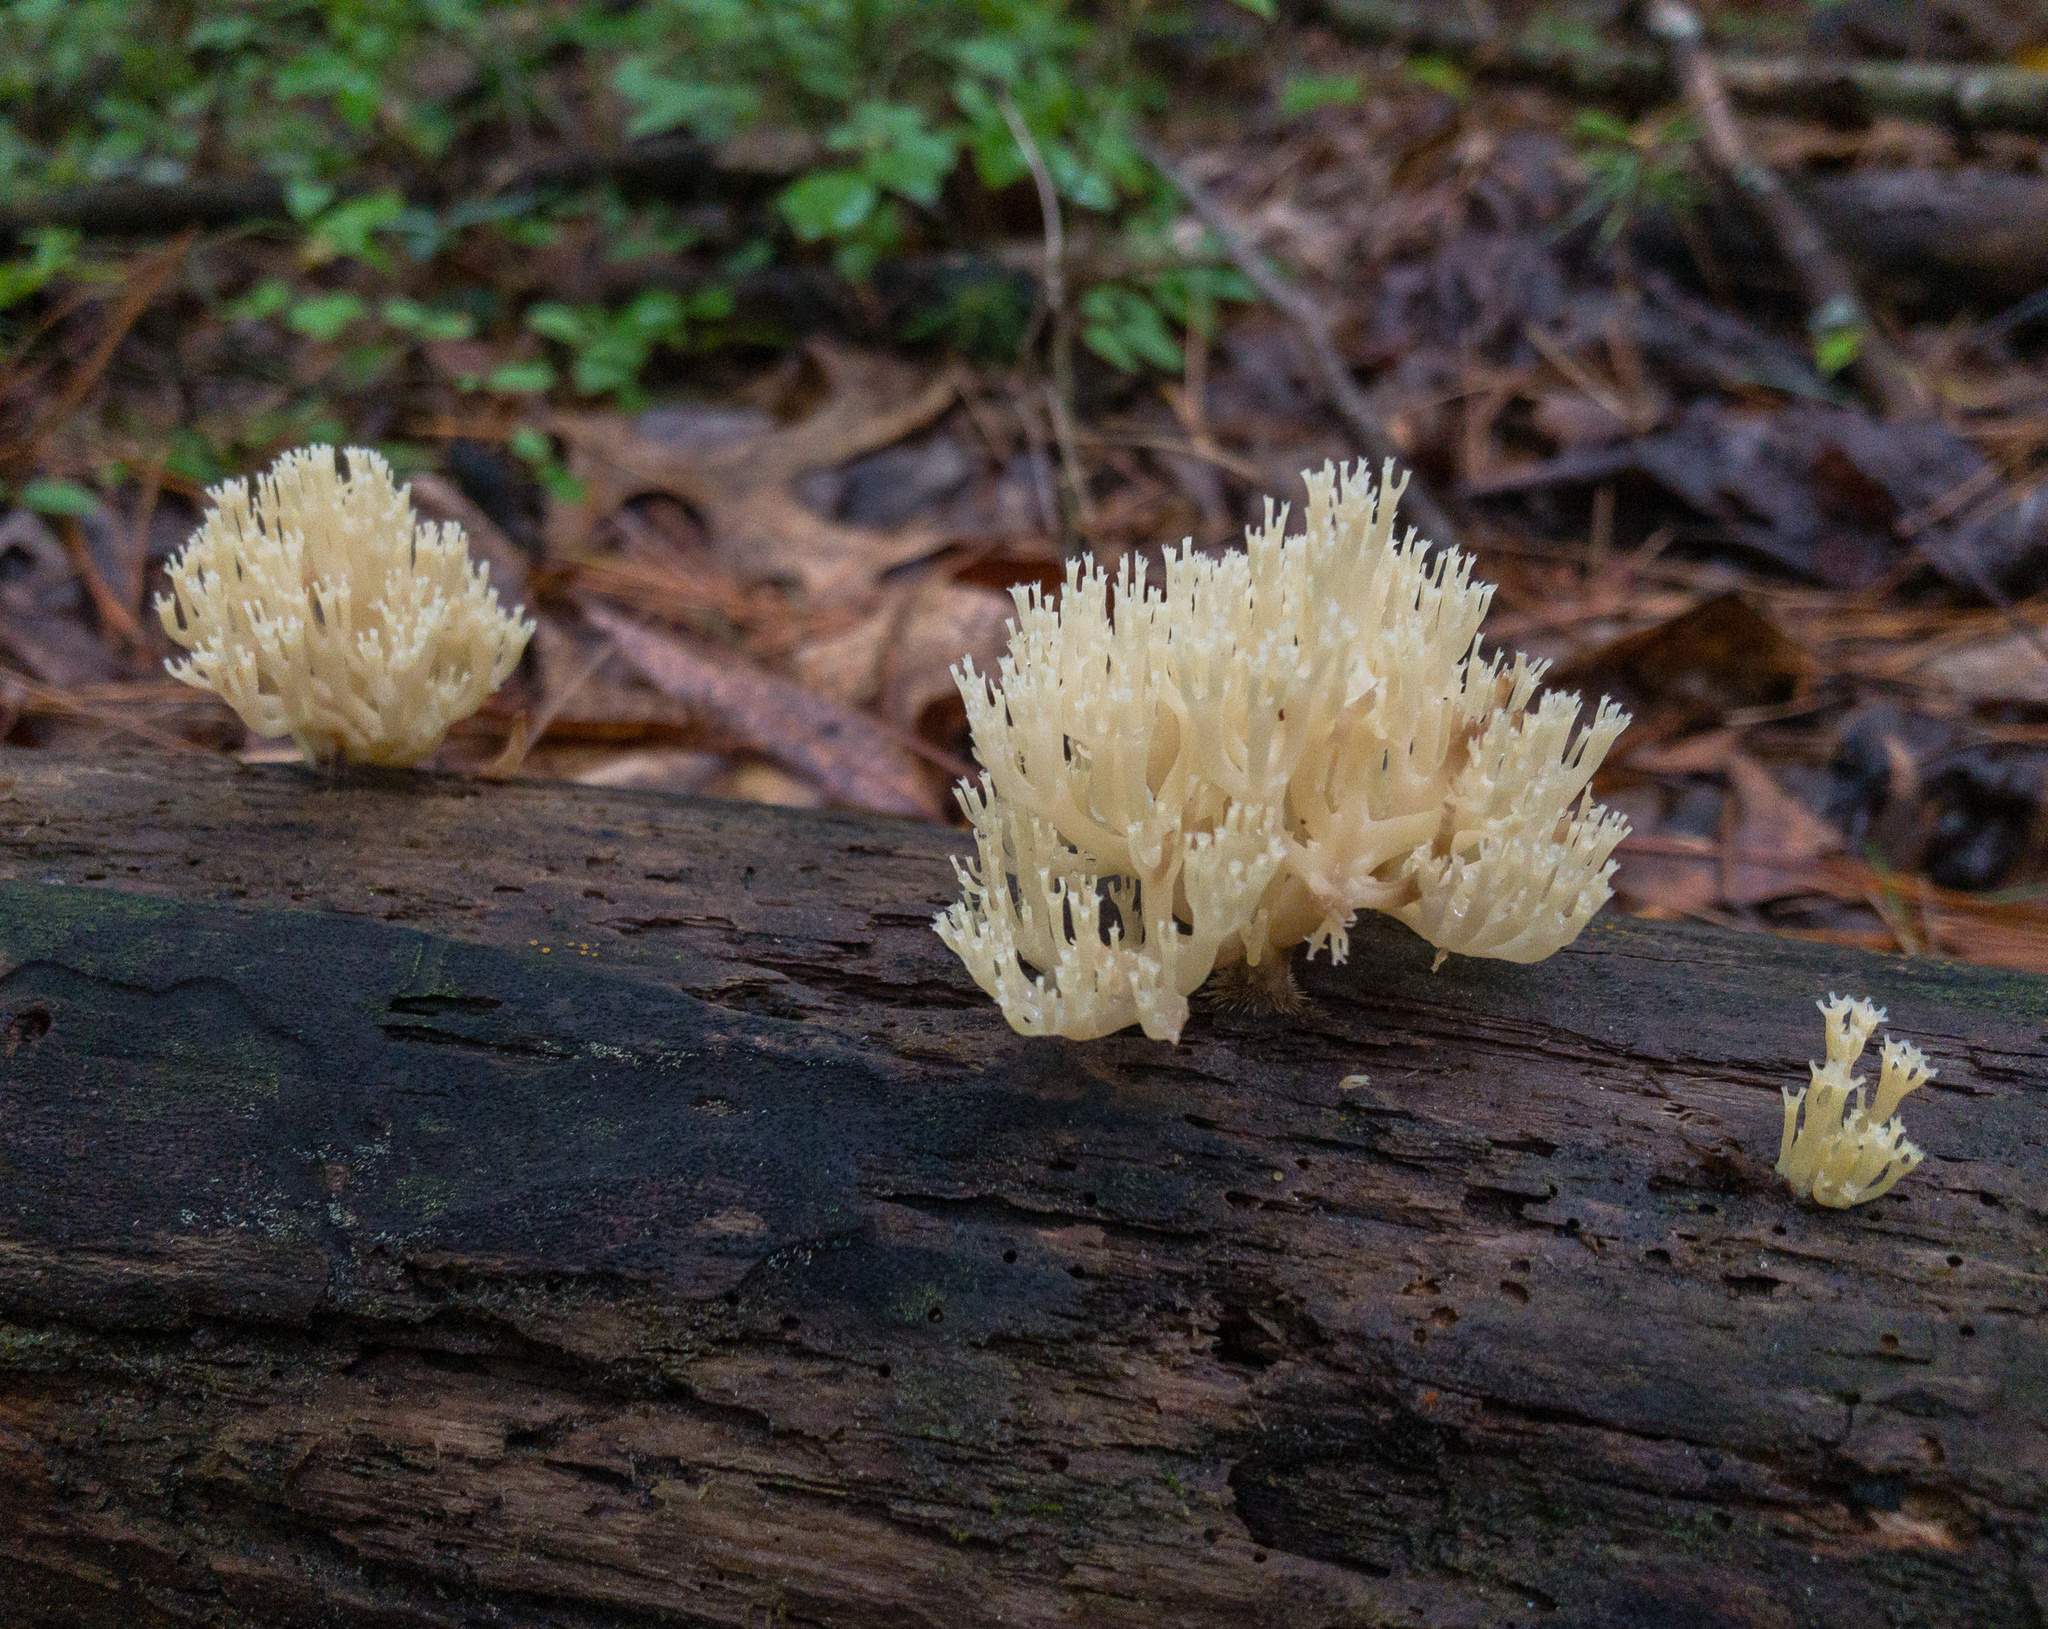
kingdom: Fungi
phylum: Basidiomycota
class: Agaricomycetes
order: Russulales
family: Auriscalpiaceae
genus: Artomyces
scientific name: Artomyces pyxidatus
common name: Crown-tipped coral fungus
